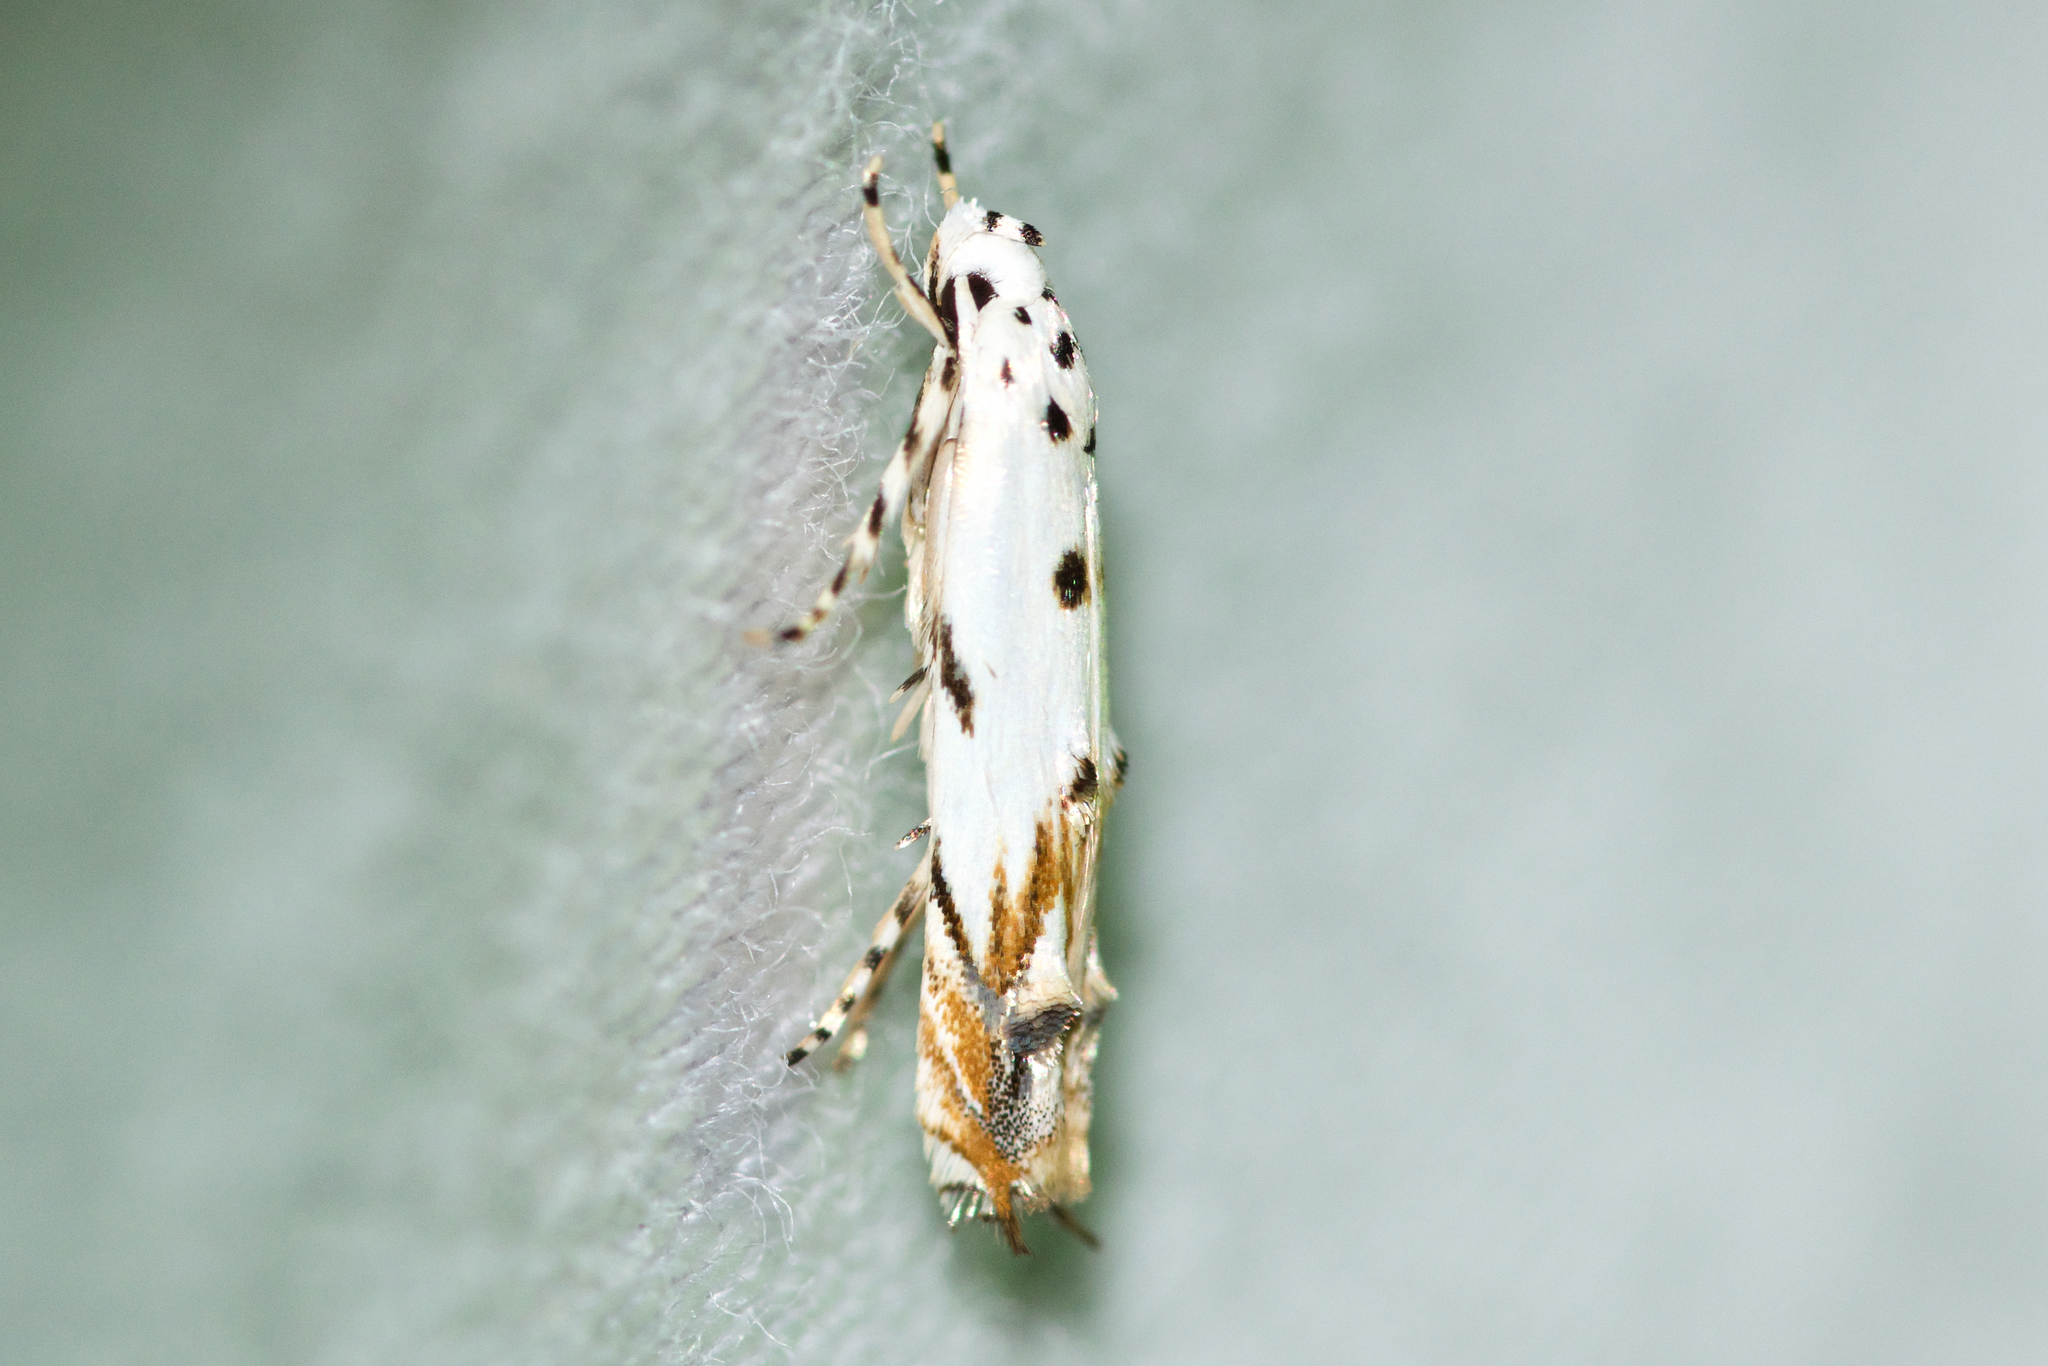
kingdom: Animalia
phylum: Arthropoda
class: Insecta
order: Lepidoptera
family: Momphidae
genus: Mompha
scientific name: Mompha eloisella
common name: Red-streaked mompha moth
